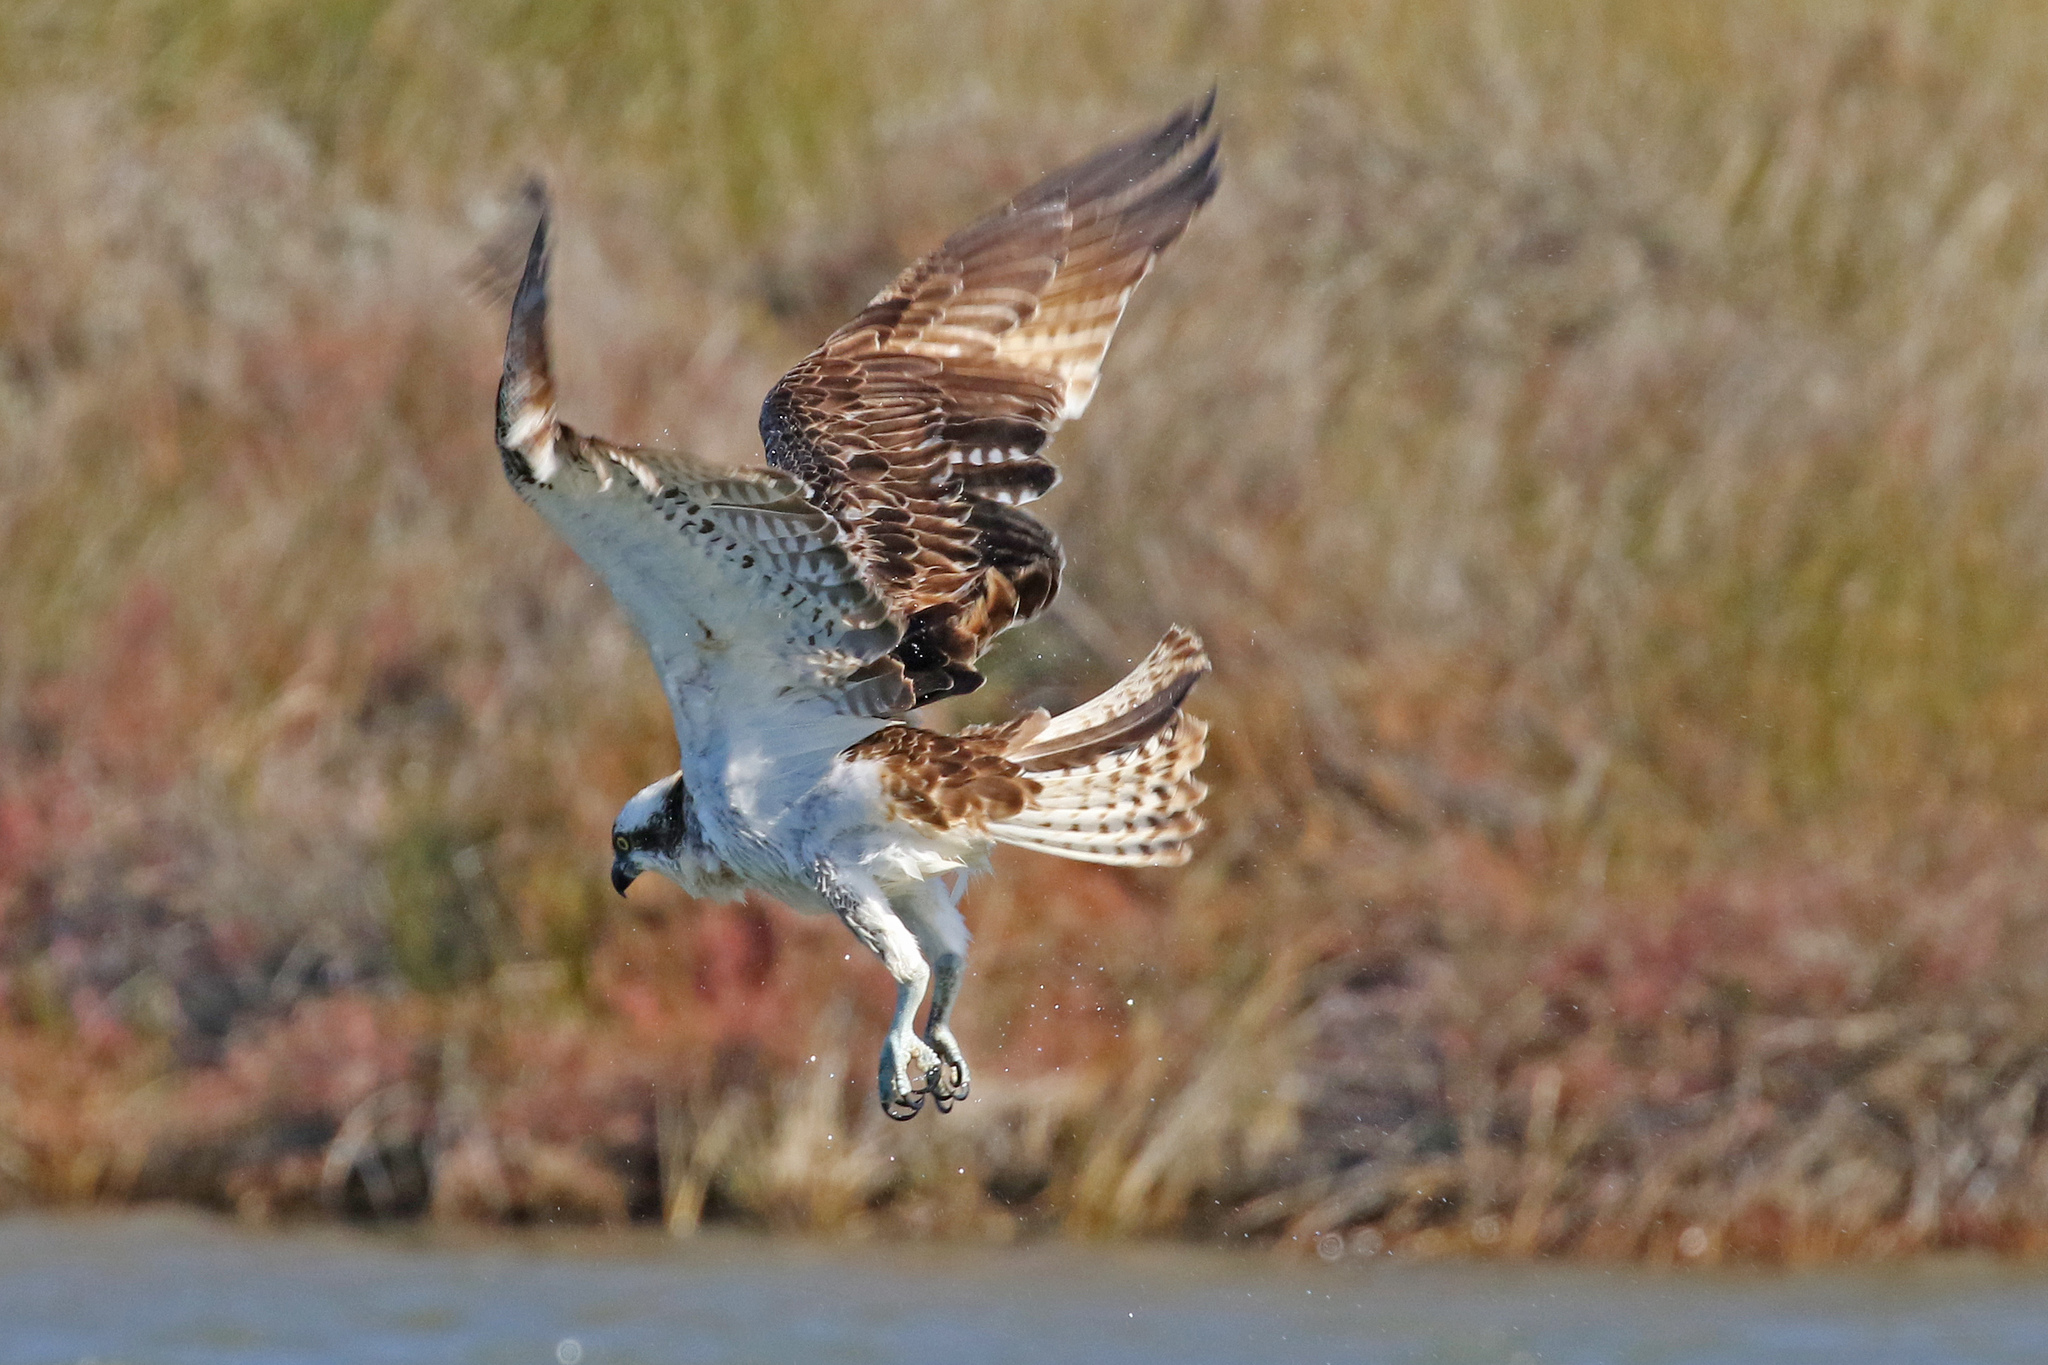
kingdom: Animalia
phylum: Chordata
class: Aves
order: Accipitriformes
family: Pandionidae
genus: Pandion
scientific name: Pandion haliaetus
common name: Osprey
